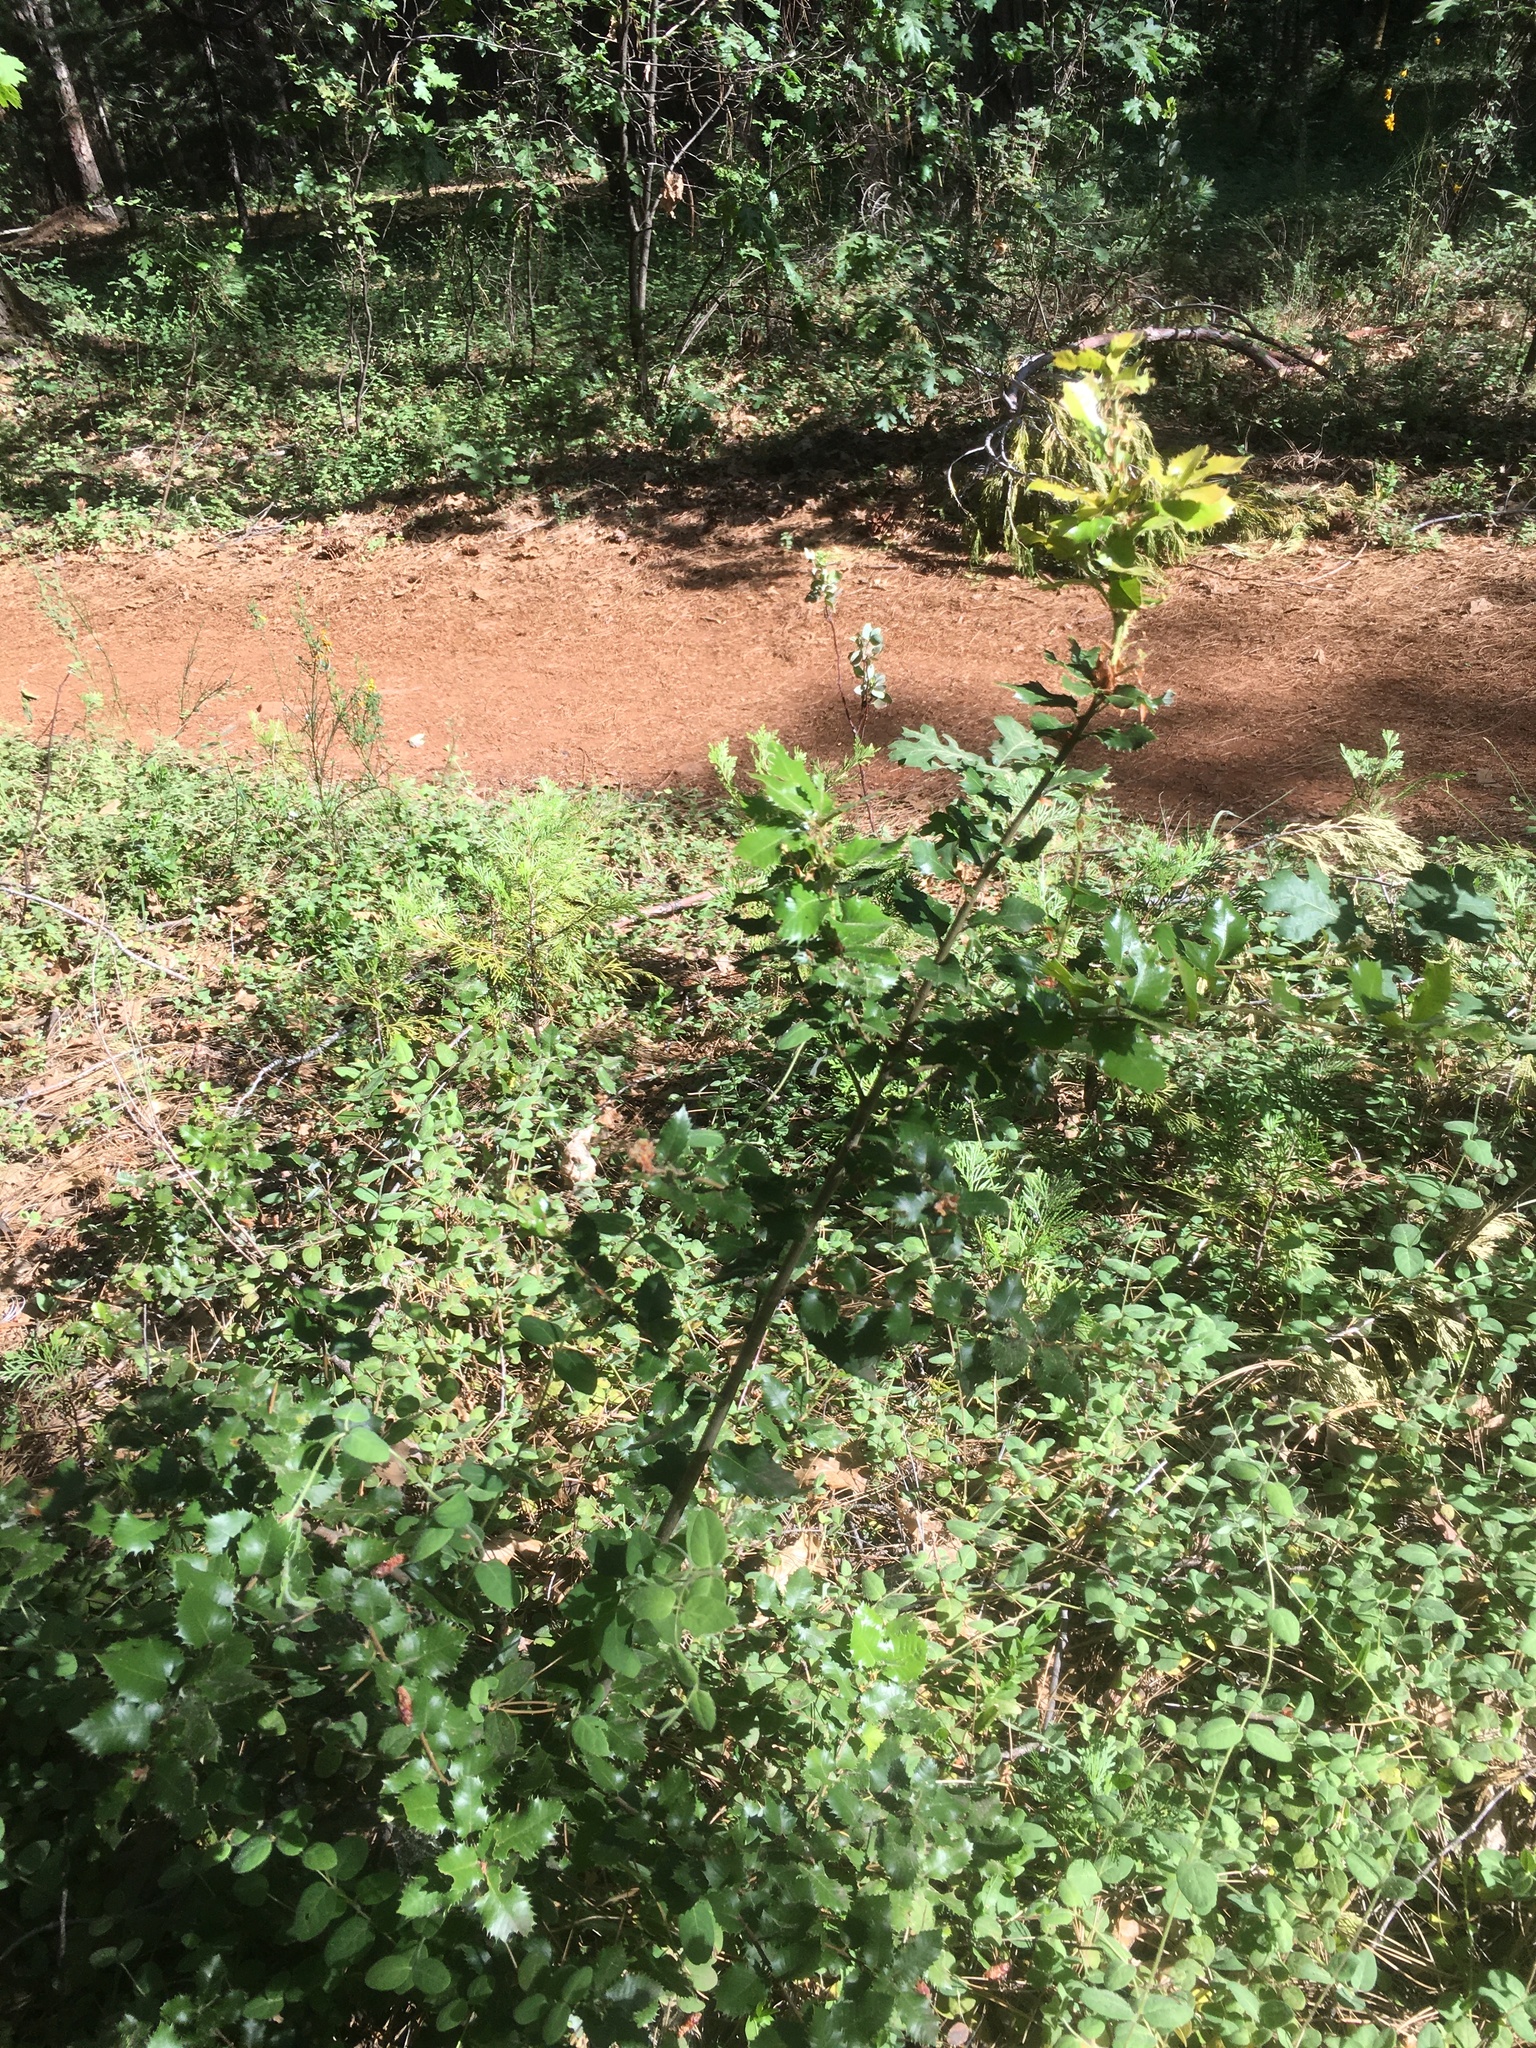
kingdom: Plantae
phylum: Tracheophyta
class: Magnoliopsida
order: Fagales
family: Fagaceae
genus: Quercus
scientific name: Quercus chrysolepis
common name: Canyon live oak
